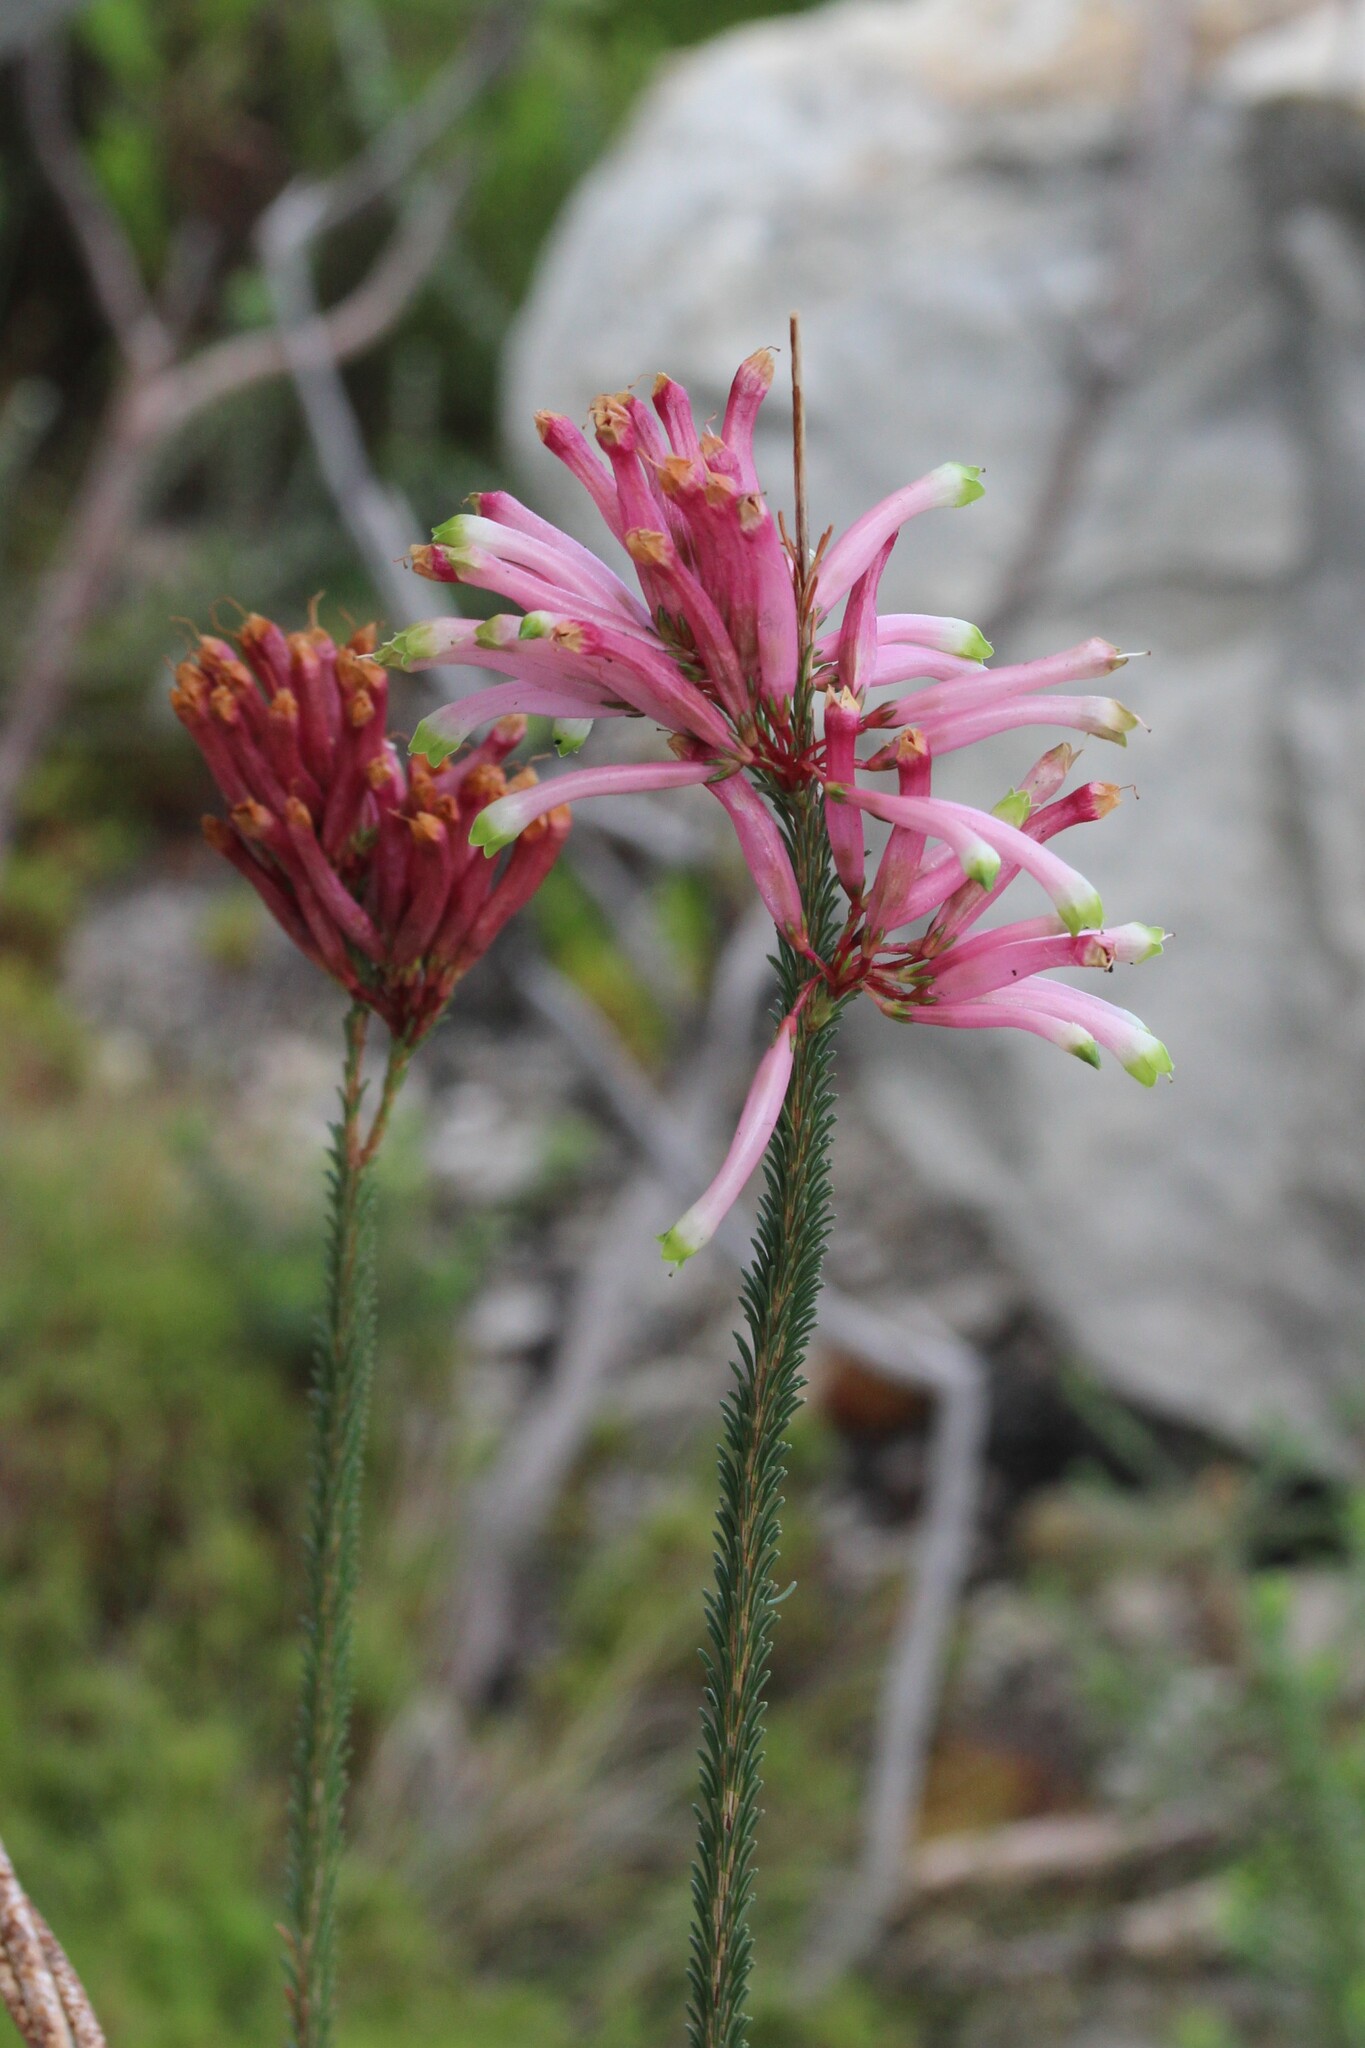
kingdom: Plantae
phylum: Tracheophyta
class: Magnoliopsida
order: Ericales
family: Ericaceae
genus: Erica
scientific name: Erica fascicularis
